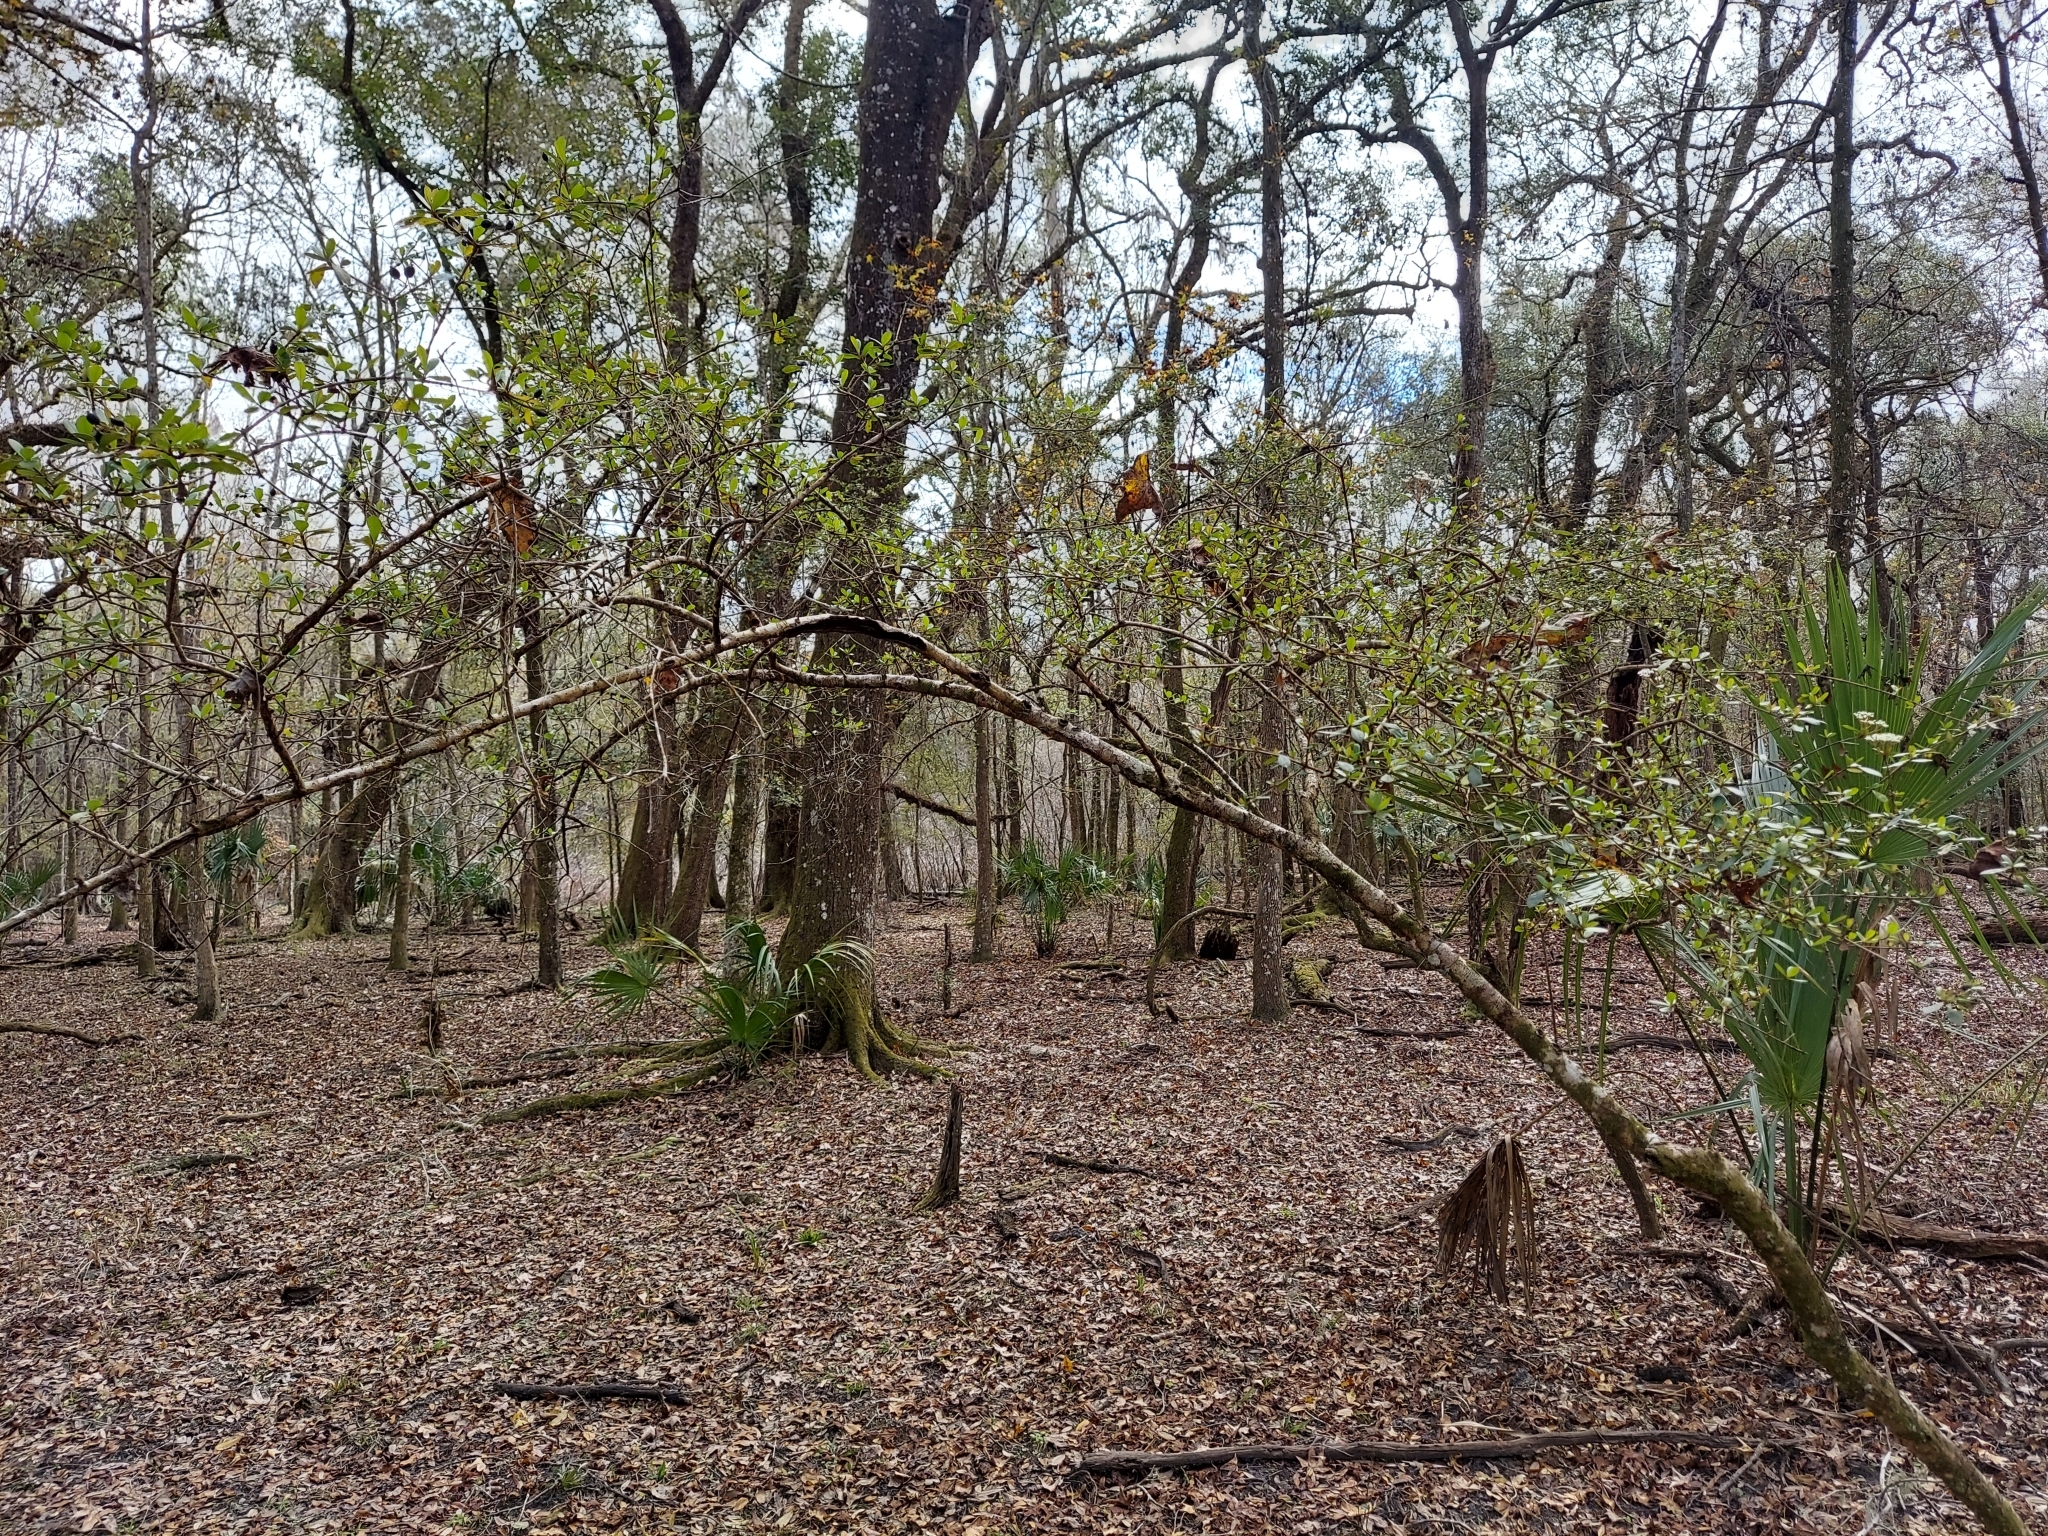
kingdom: Plantae
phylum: Tracheophyta
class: Magnoliopsida
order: Dipsacales
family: Viburnaceae
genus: Viburnum
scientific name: Viburnum obovatum
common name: Walter's viburnum
